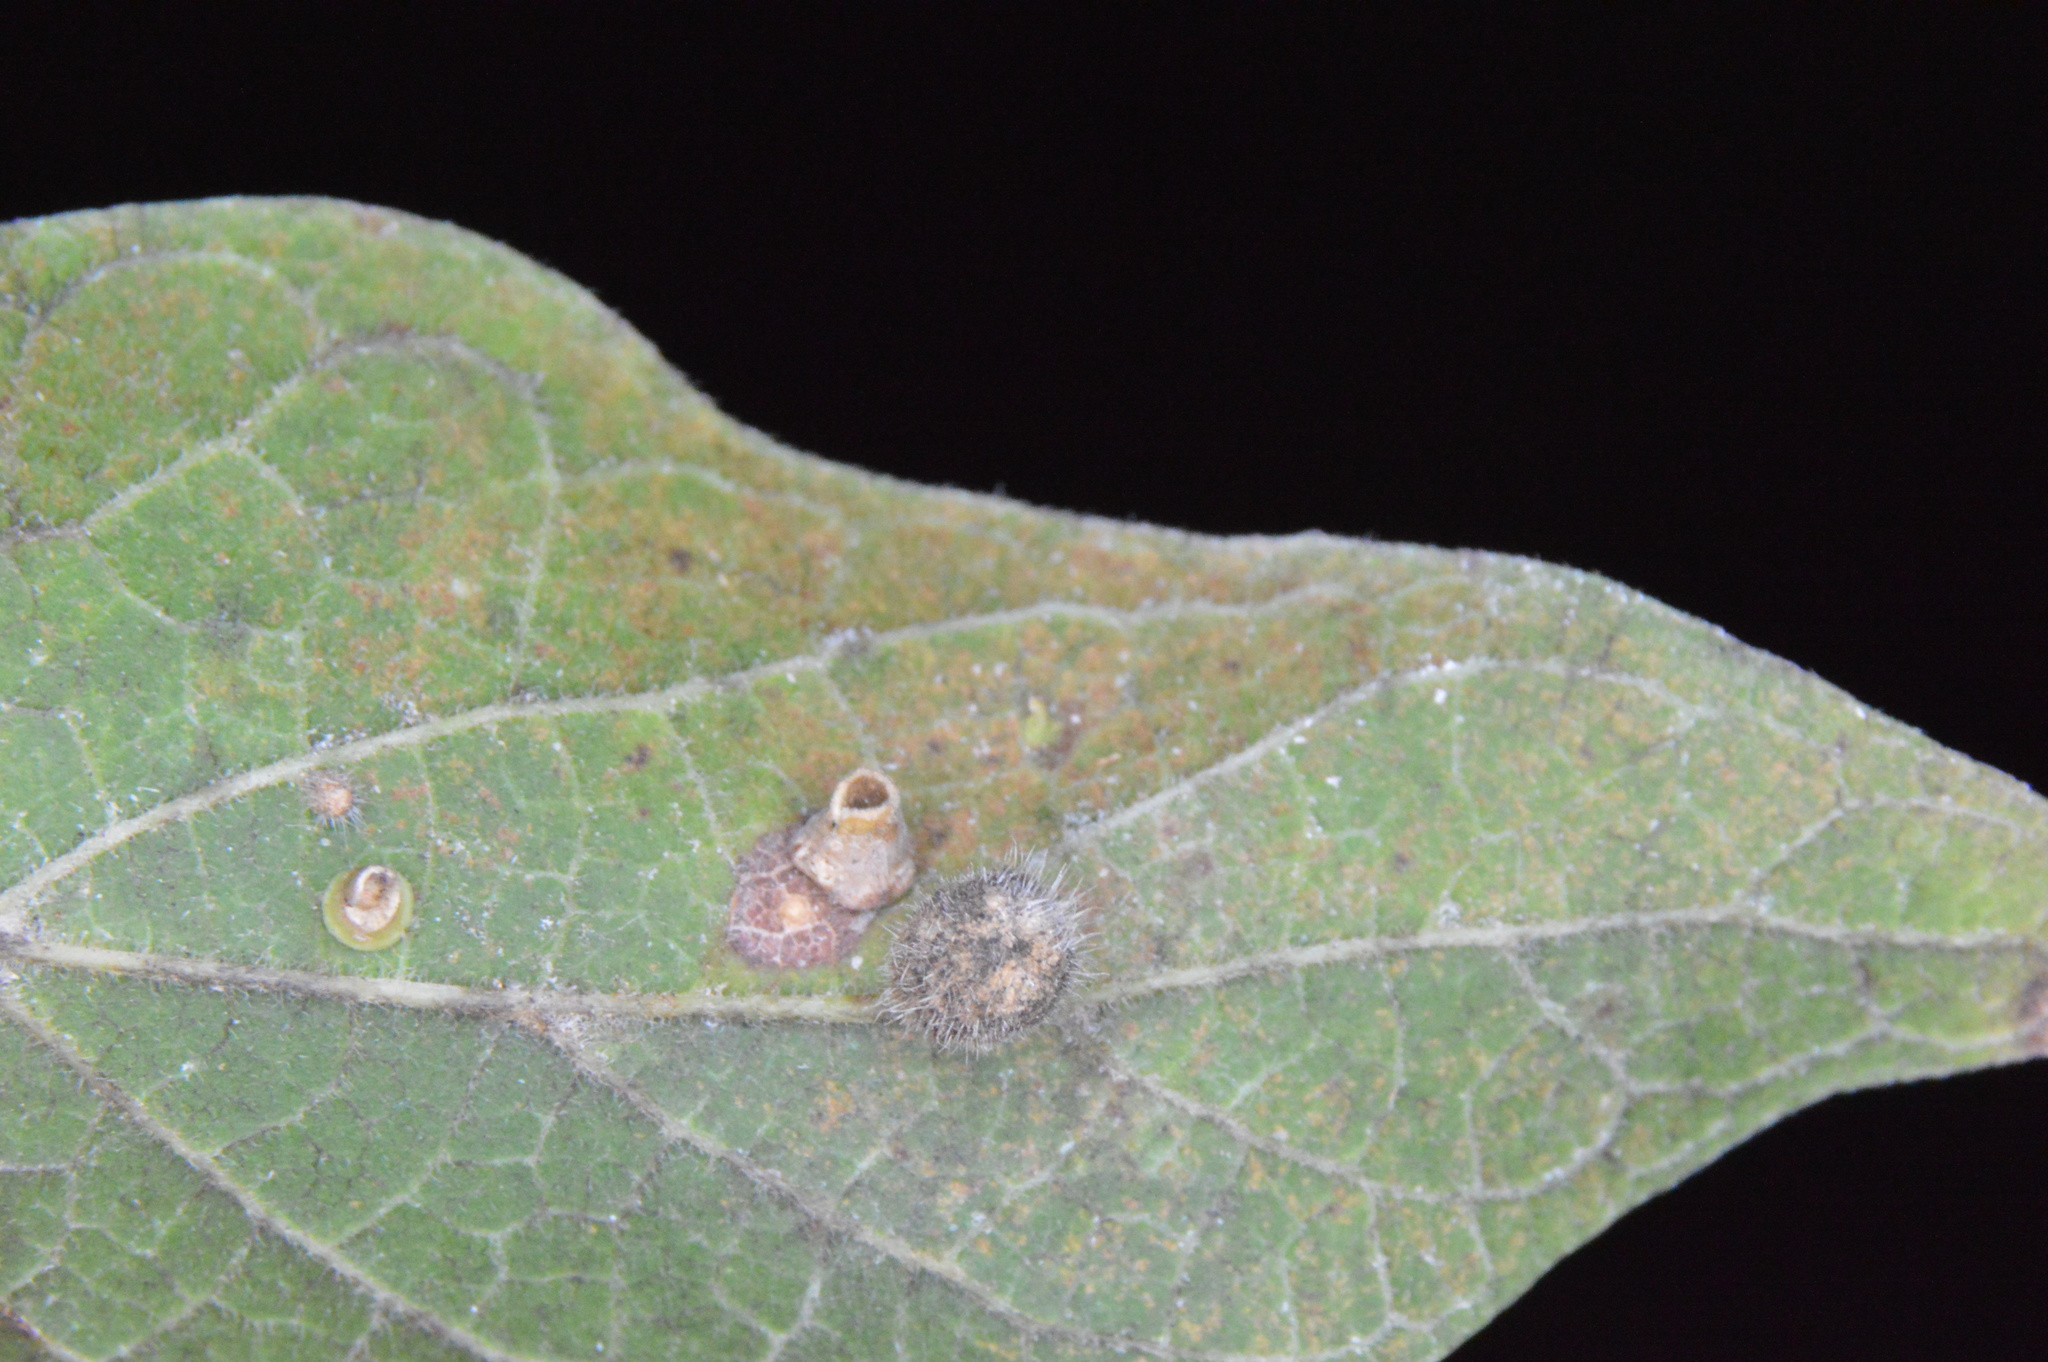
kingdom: Animalia
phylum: Arthropoda
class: Insecta
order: Diptera
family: Cecidomyiidae
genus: Celticecis
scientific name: Celticecis pubescens
